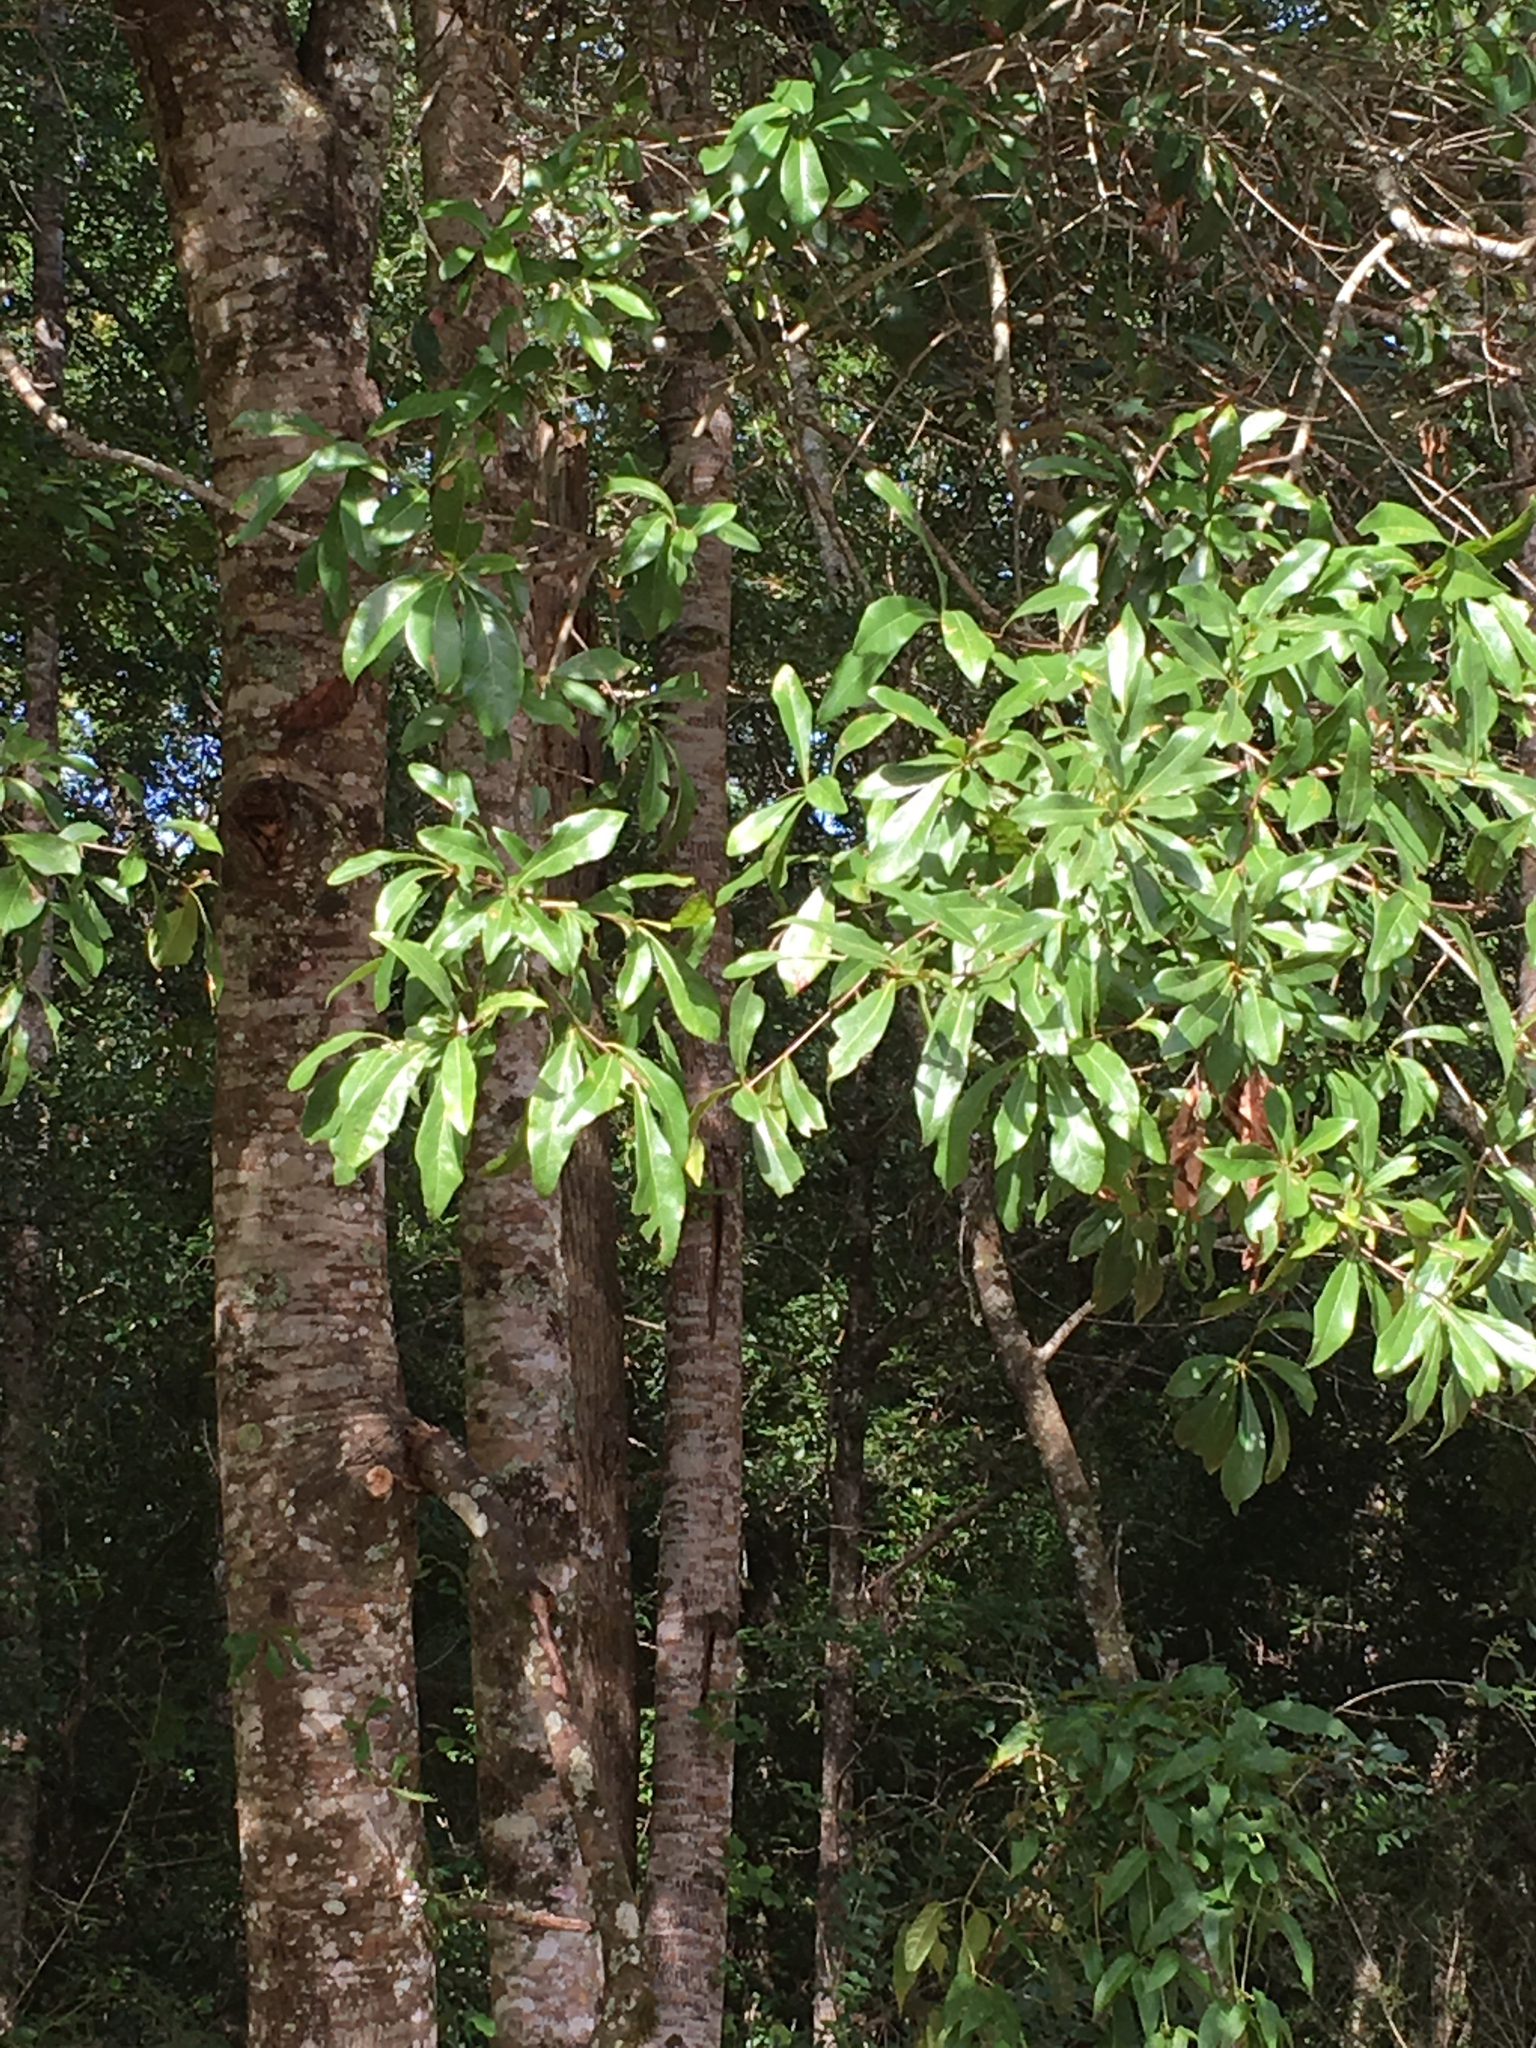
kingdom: Plantae
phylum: Tracheophyta
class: Magnoliopsida
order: Fagales
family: Fagaceae
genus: Quercus
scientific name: Quercus laurifolia
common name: Swamp laurel oak
